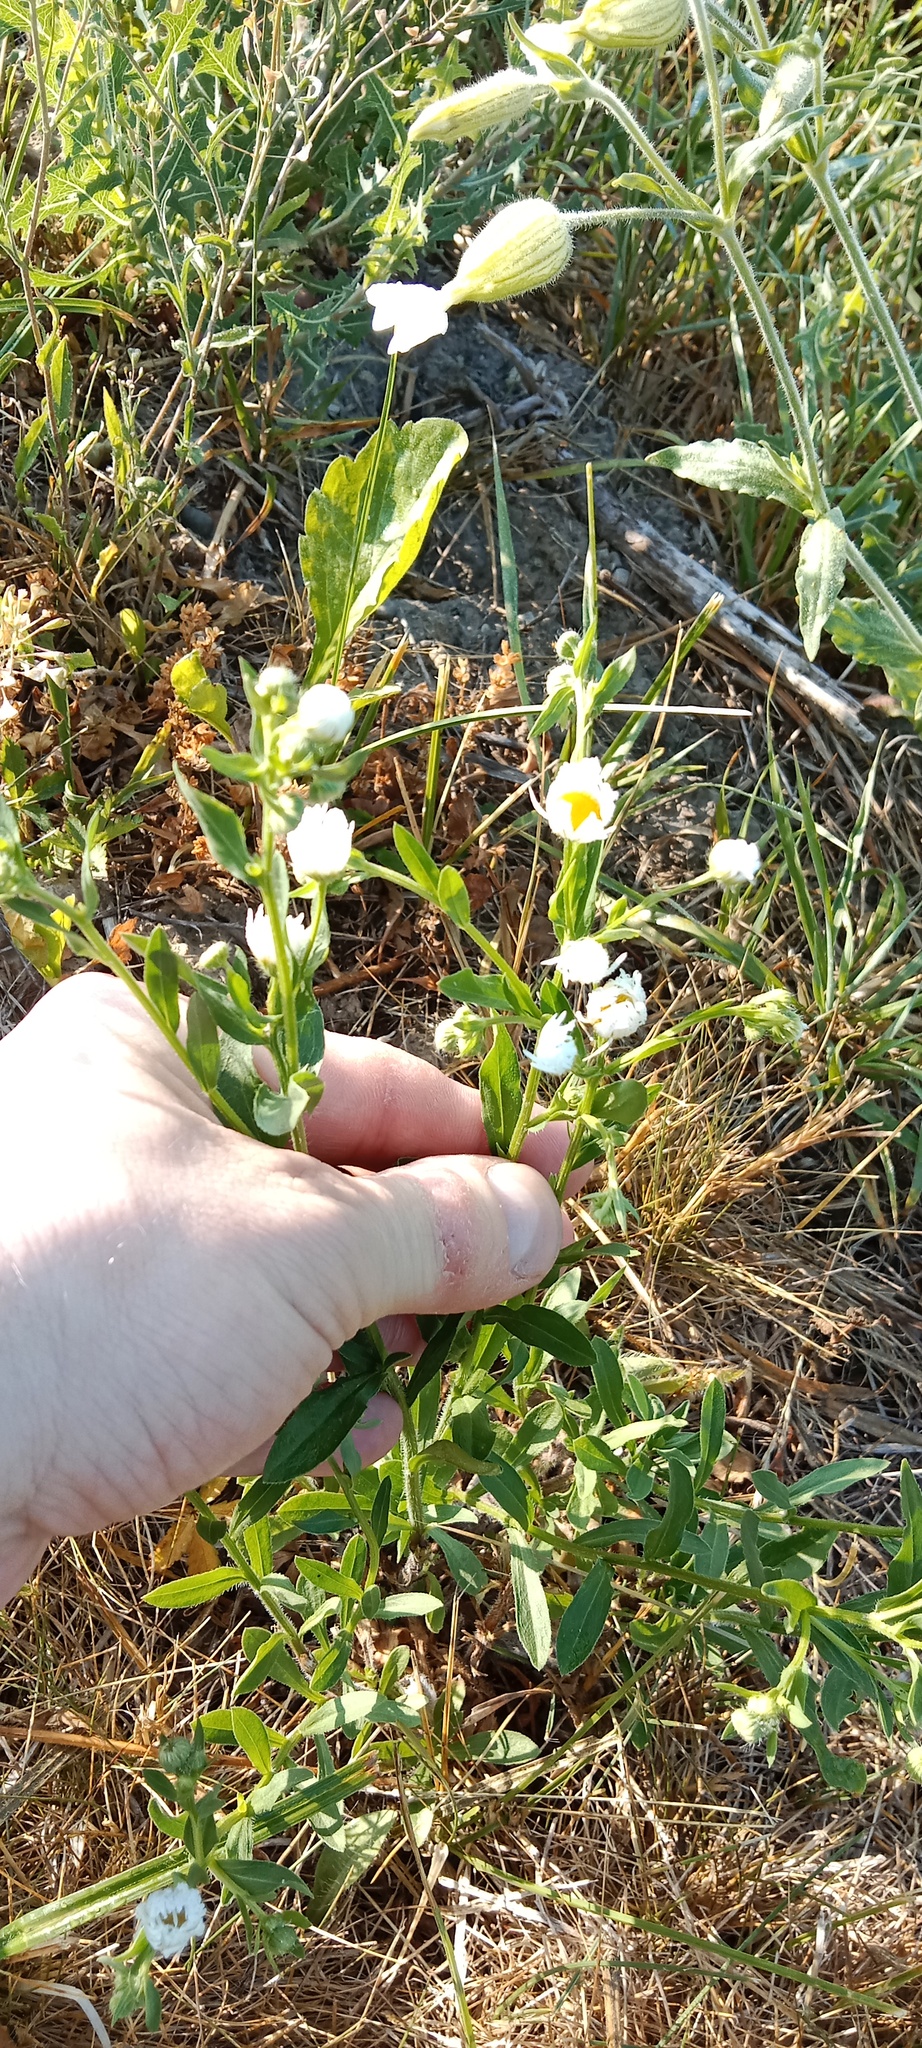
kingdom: Plantae
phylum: Tracheophyta
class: Magnoliopsida
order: Asterales
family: Asteraceae
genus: Erigeron
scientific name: Erigeron annuus
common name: Tall fleabane
